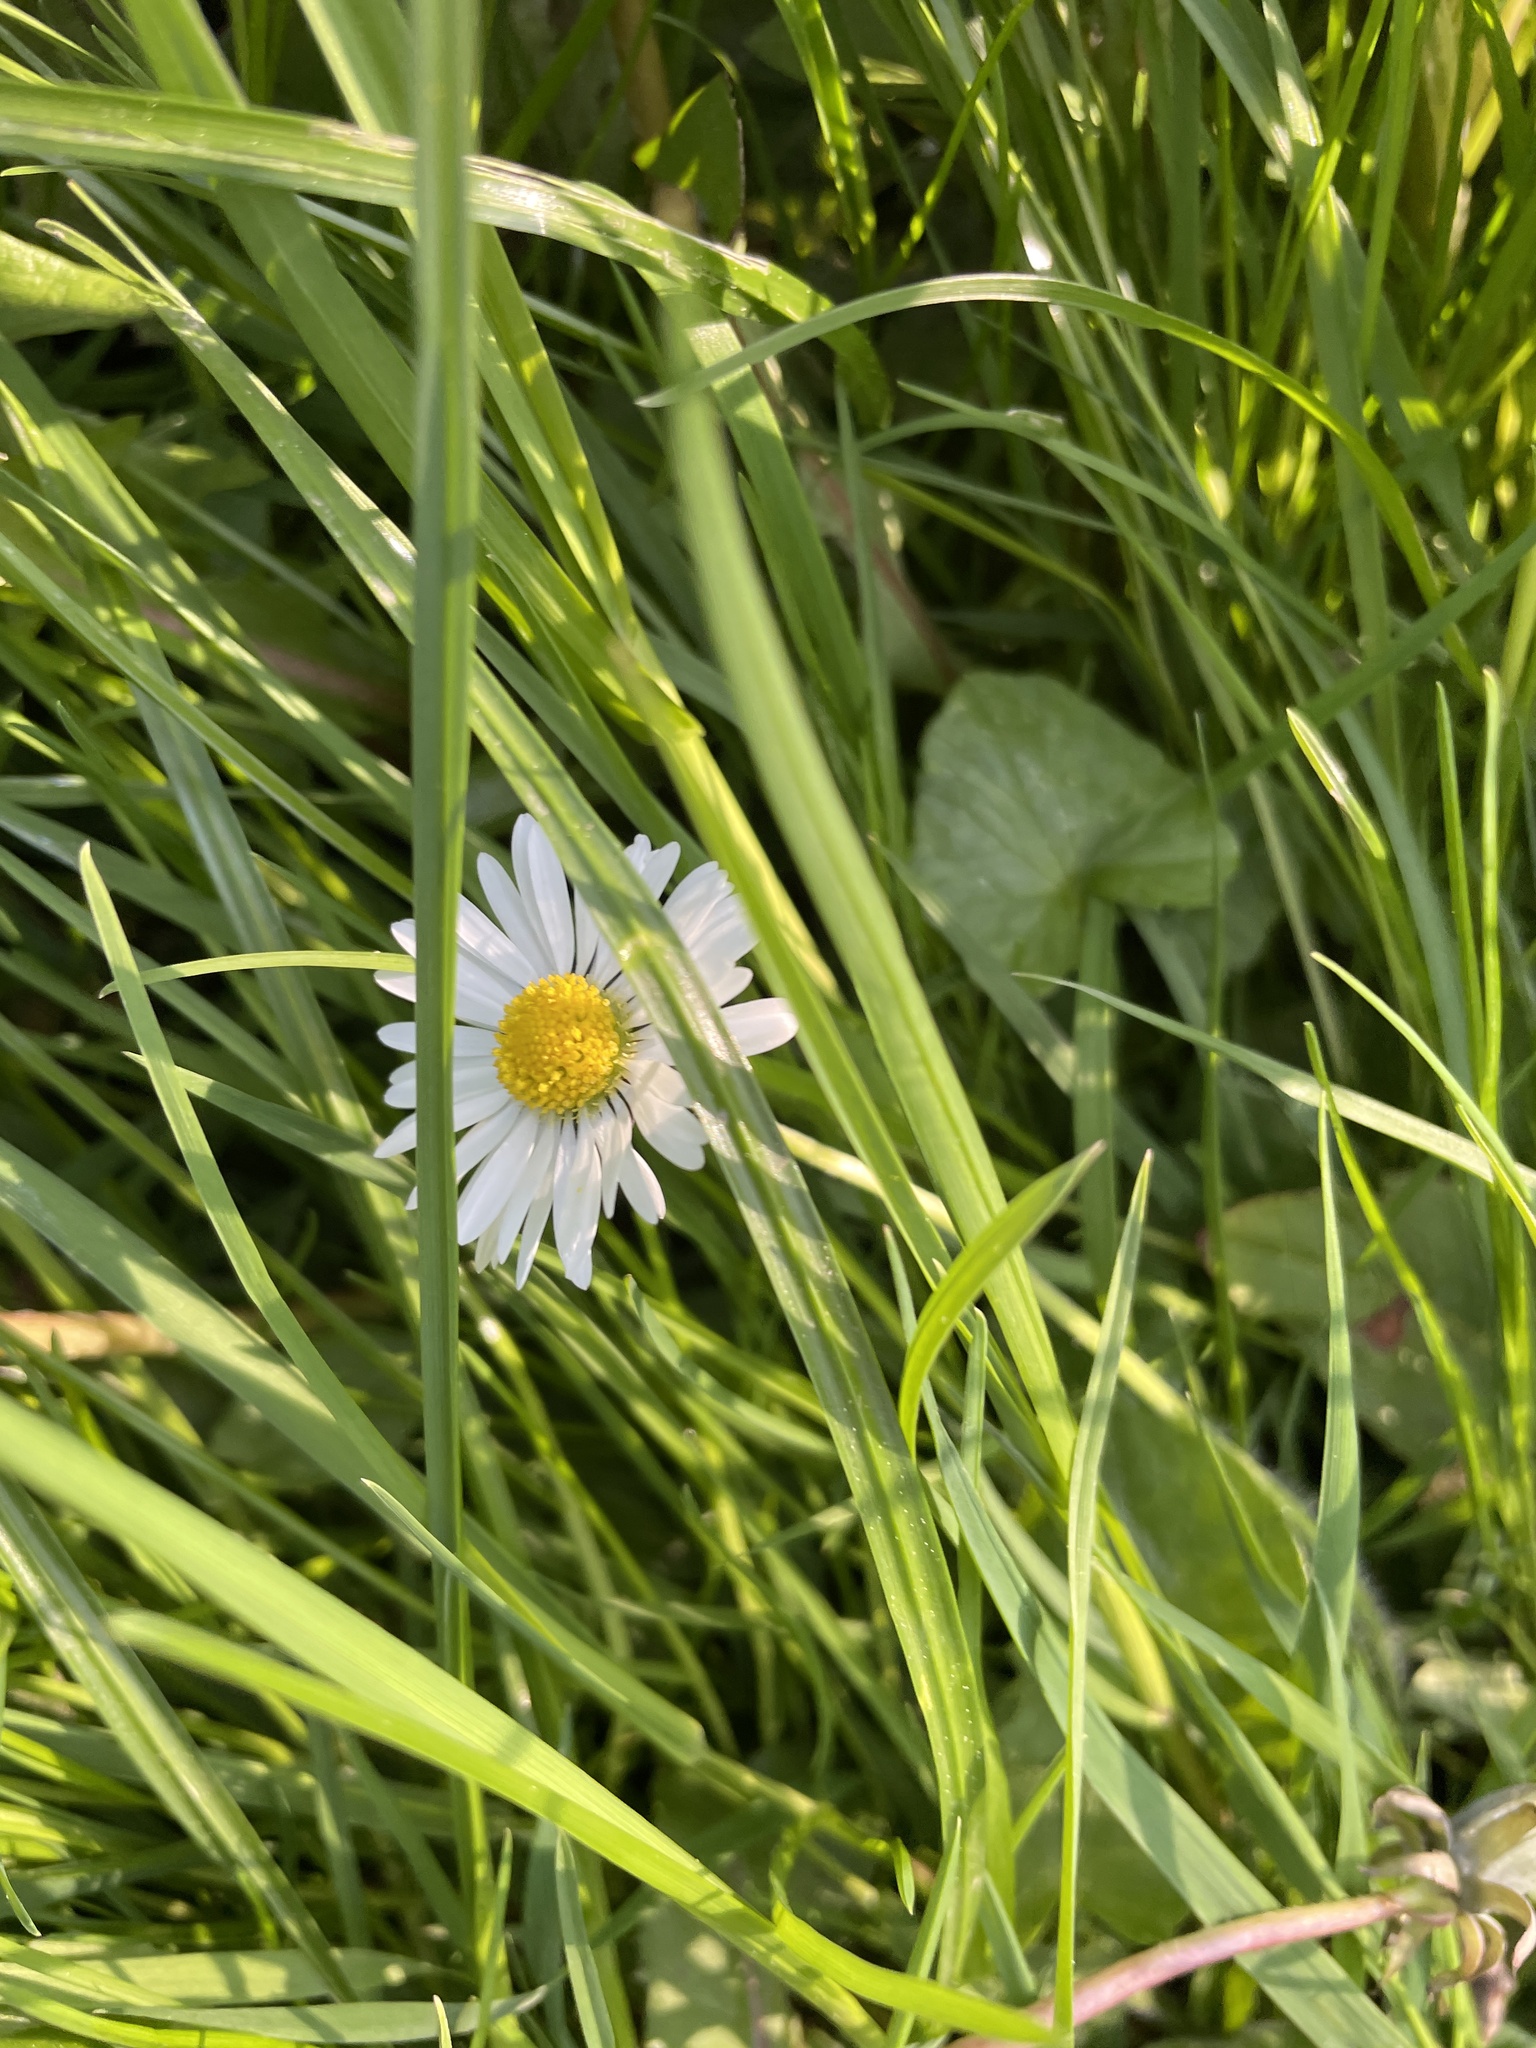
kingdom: Plantae
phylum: Tracheophyta
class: Magnoliopsida
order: Asterales
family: Asteraceae
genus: Bellis
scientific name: Bellis perennis
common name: Lawndaisy
